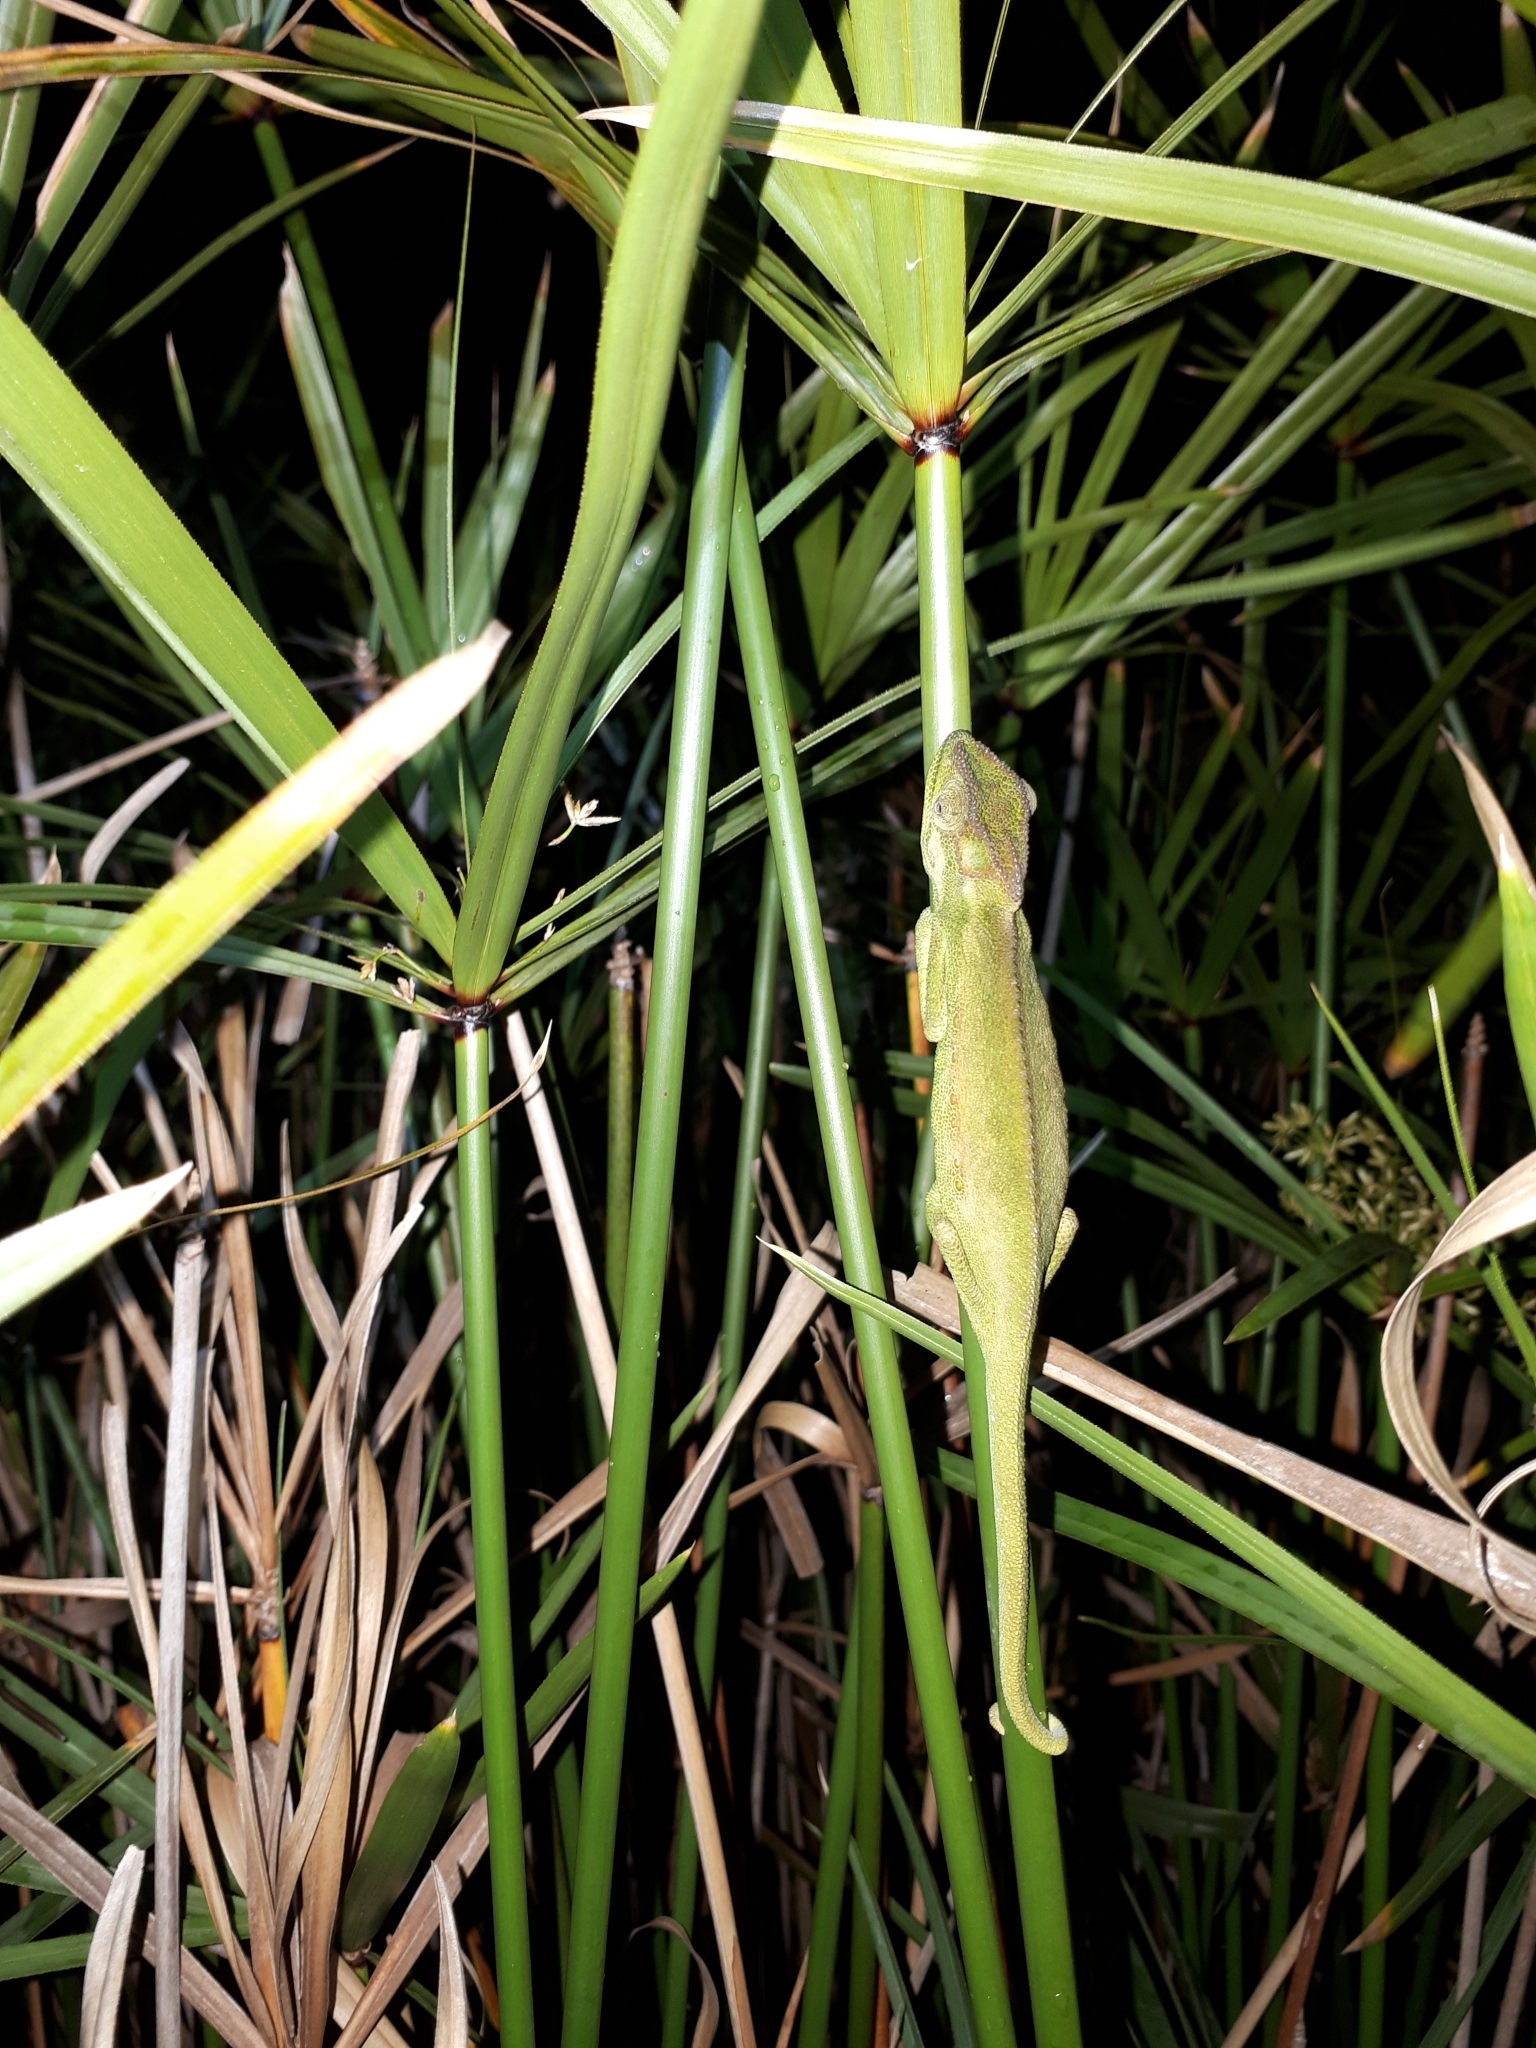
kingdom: Animalia
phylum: Chordata
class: Squamata
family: Chamaeleonidae
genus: Bradypodion
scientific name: Bradypodion pumilum
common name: Cape dwarf chameleon
